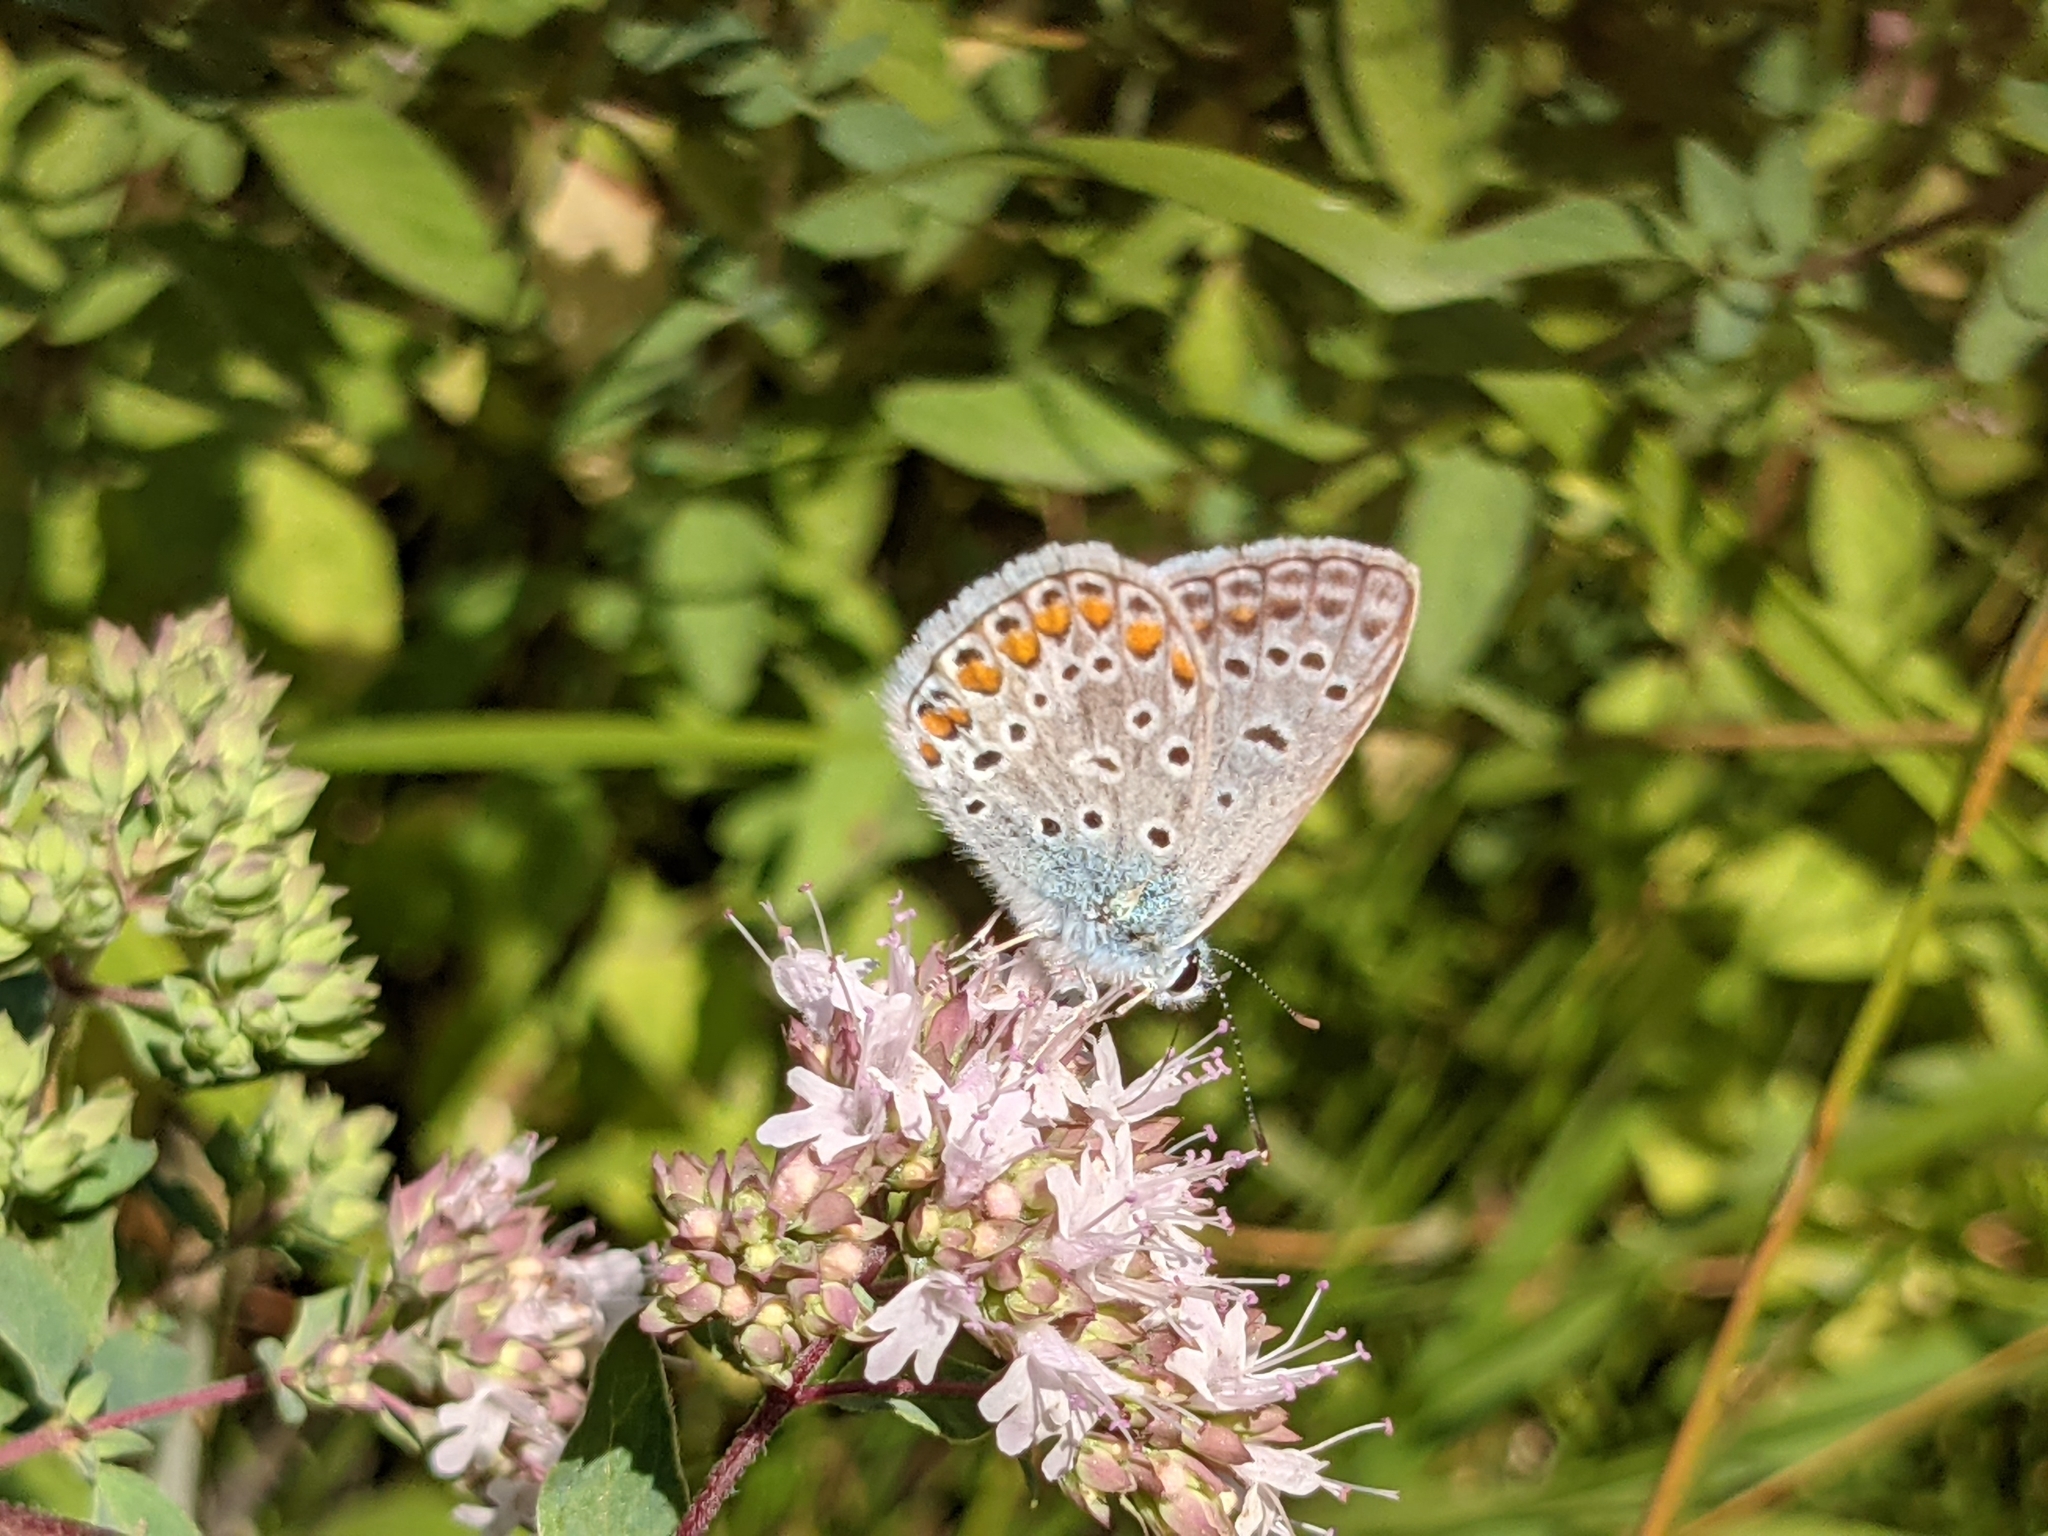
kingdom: Animalia
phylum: Arthropoda
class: Insecta
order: Lepidoptera
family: Lycaenidae
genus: Polyommatus
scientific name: Polyommatus icarus
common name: Common blue
